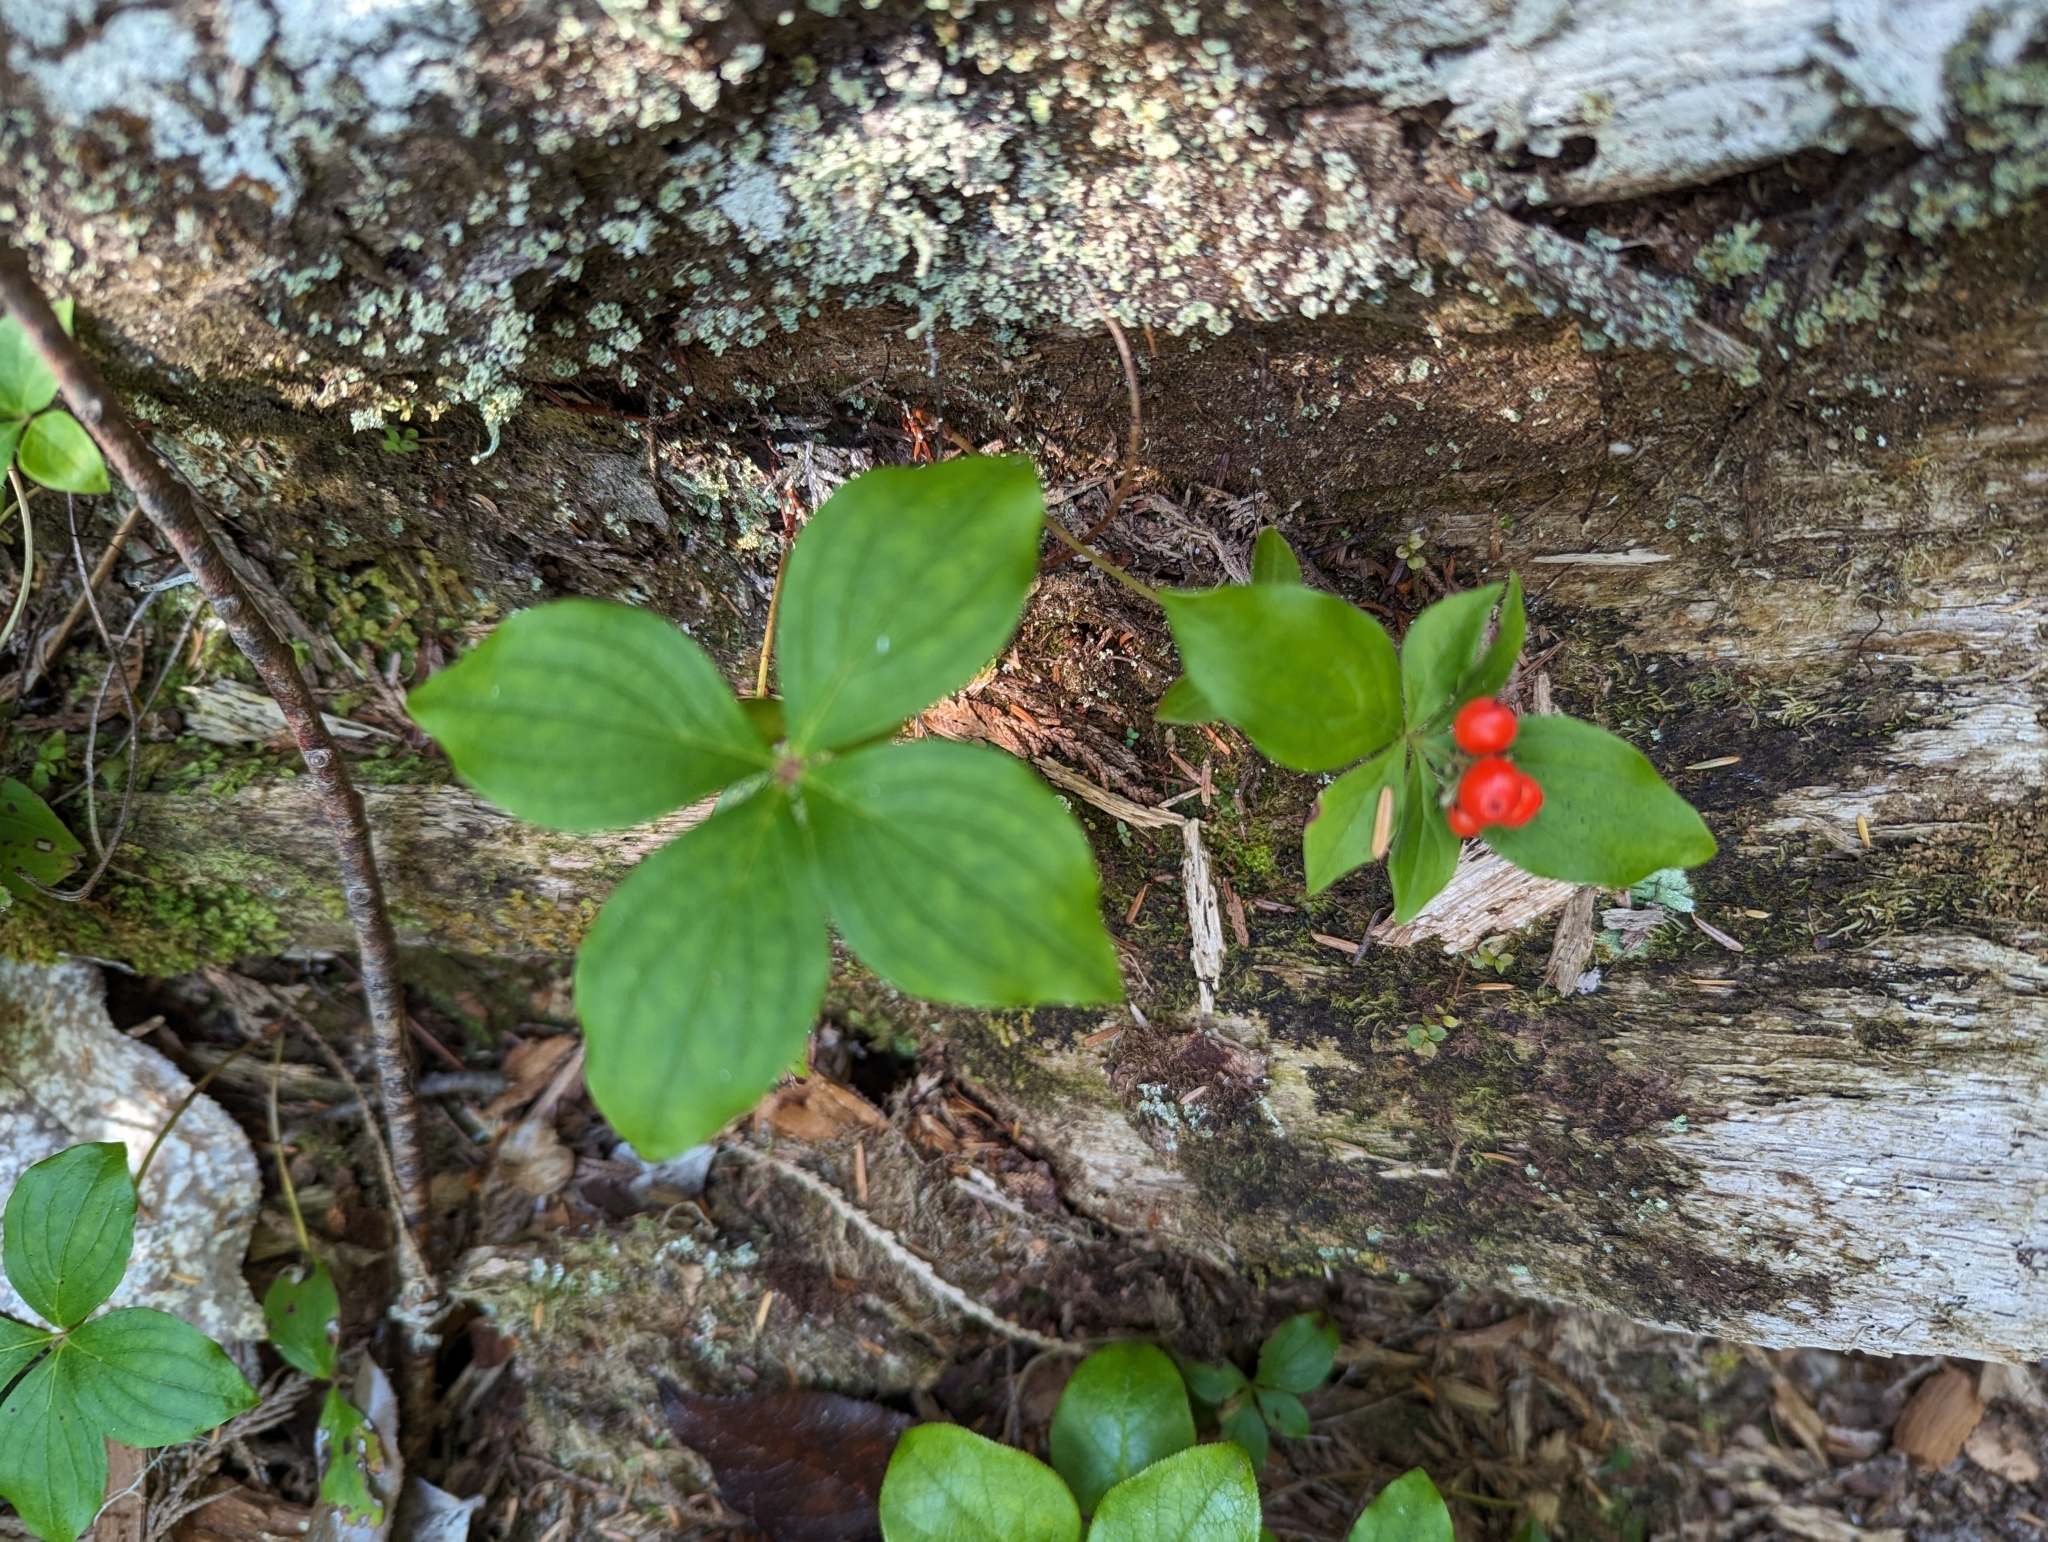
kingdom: Plantae
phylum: Tracheophyta
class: Magnoliopsida
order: Cornales
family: Cornaceae
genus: Cornus
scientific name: Cornus unalaschkensis
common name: Alaska bunchberry
